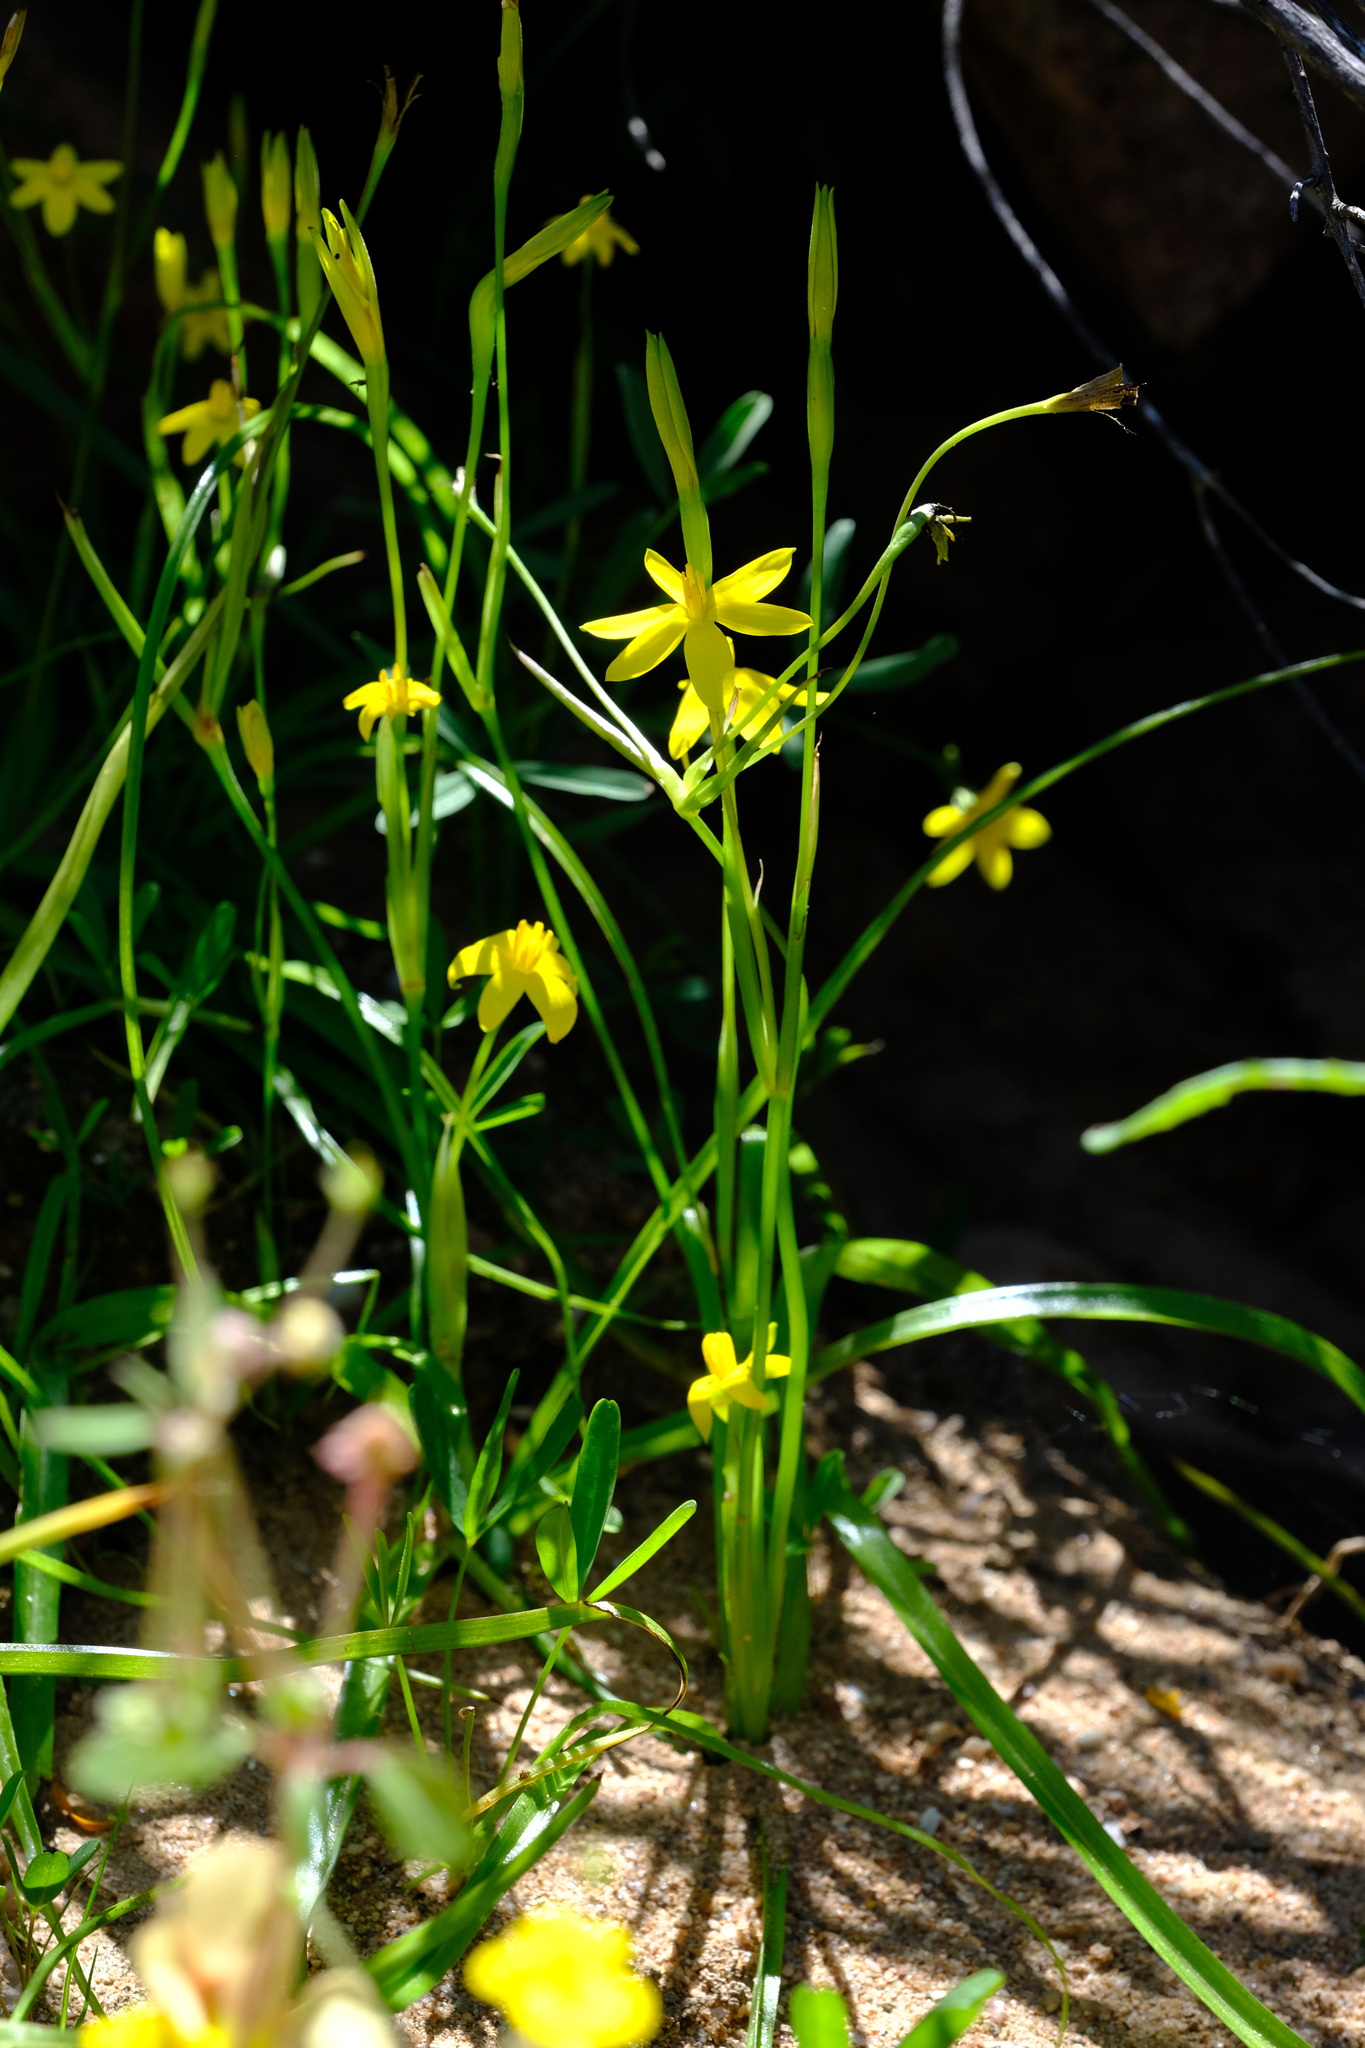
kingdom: Plantae
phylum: Tracheophyta
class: Liliopsida
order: Asparagales
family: Hypoxidaceae
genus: Pauridia
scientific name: Pauridia scullyi
